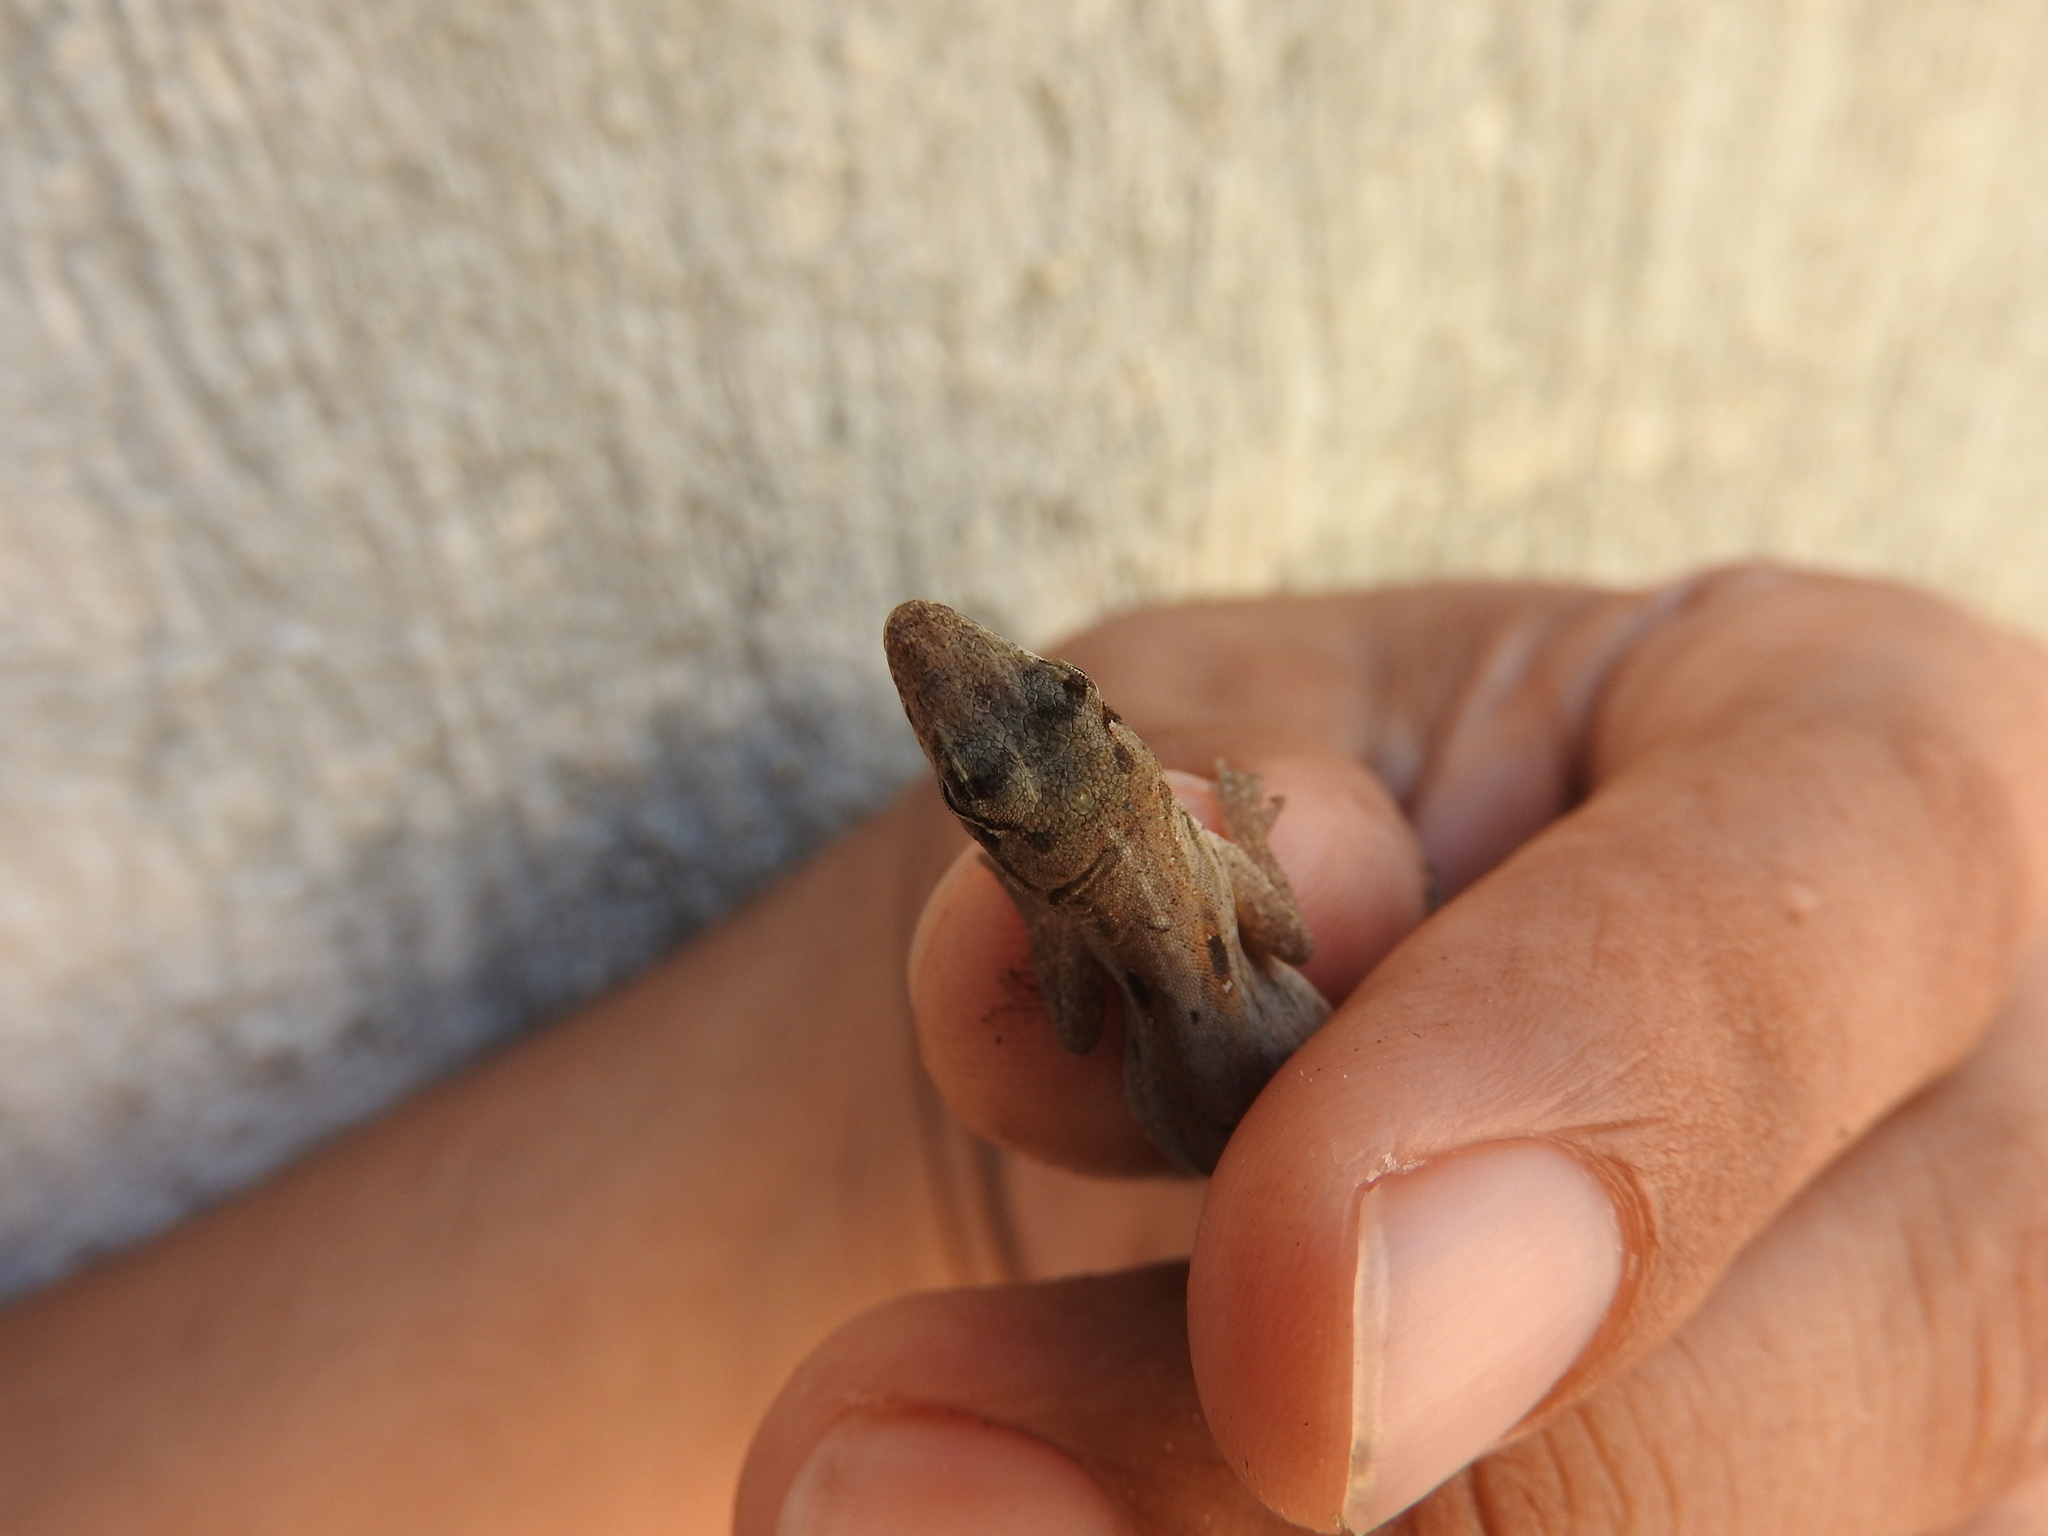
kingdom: Animalia
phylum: Chordata
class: Squamata
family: Dactyloidae
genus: Anolis
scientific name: Anolis sagrei
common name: Brown anole
